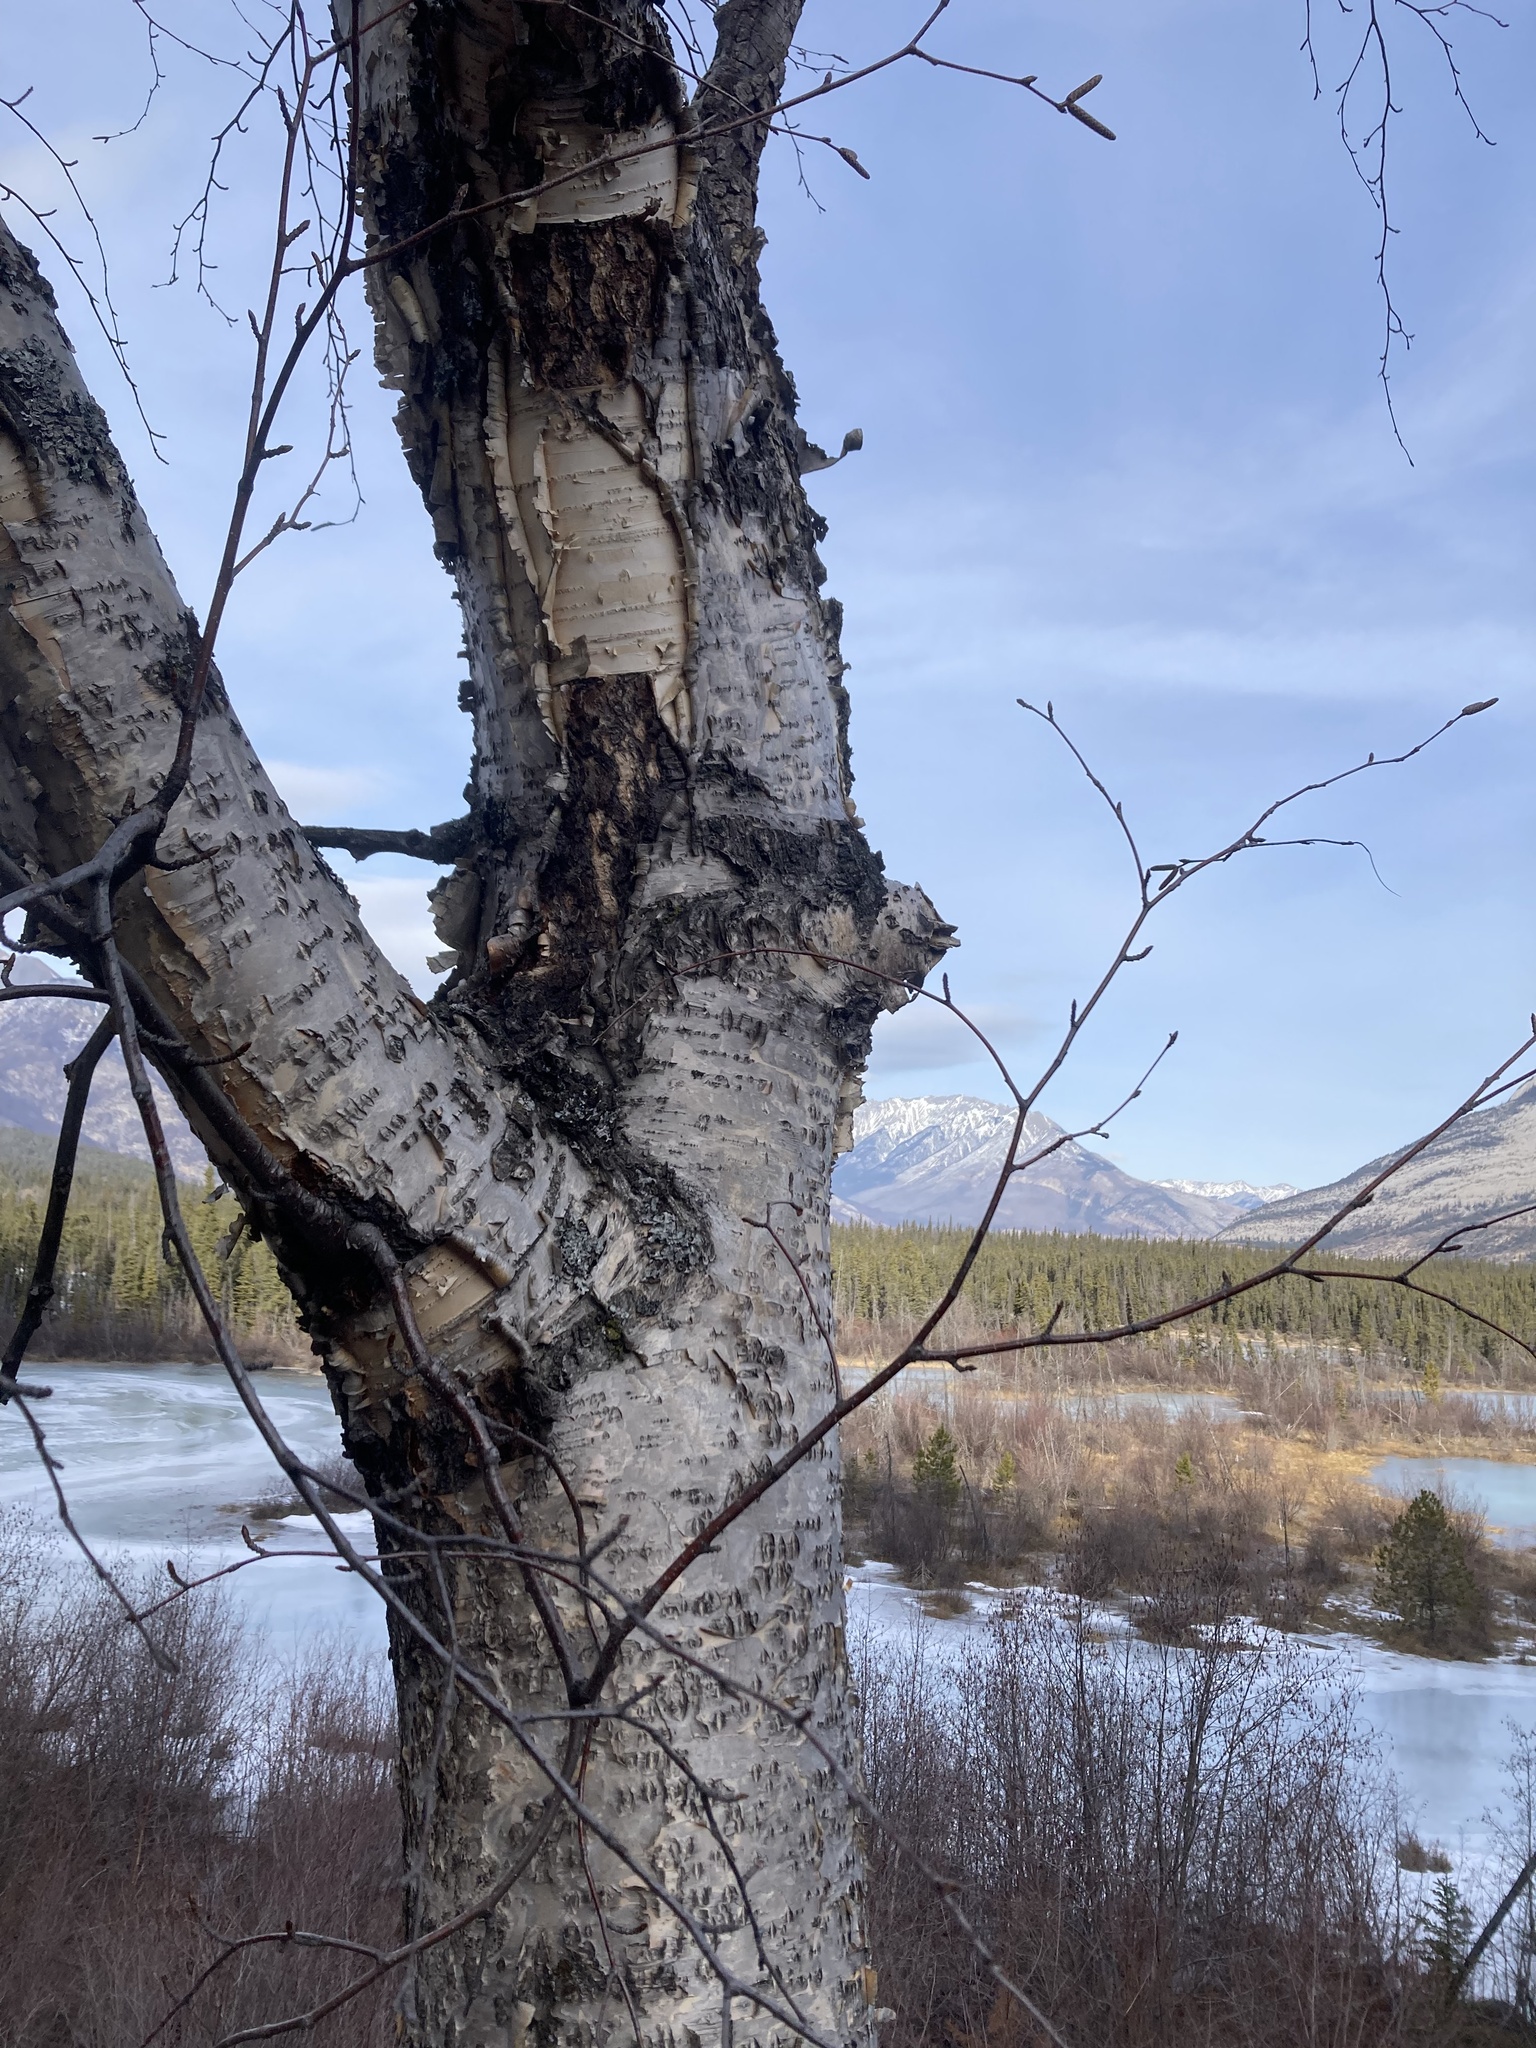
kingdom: Plantae
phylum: Tracheophyta
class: Magnoliopsida
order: Fagales
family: Betulaceae
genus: Betula
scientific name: Betula papyrifera
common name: Paper birch
